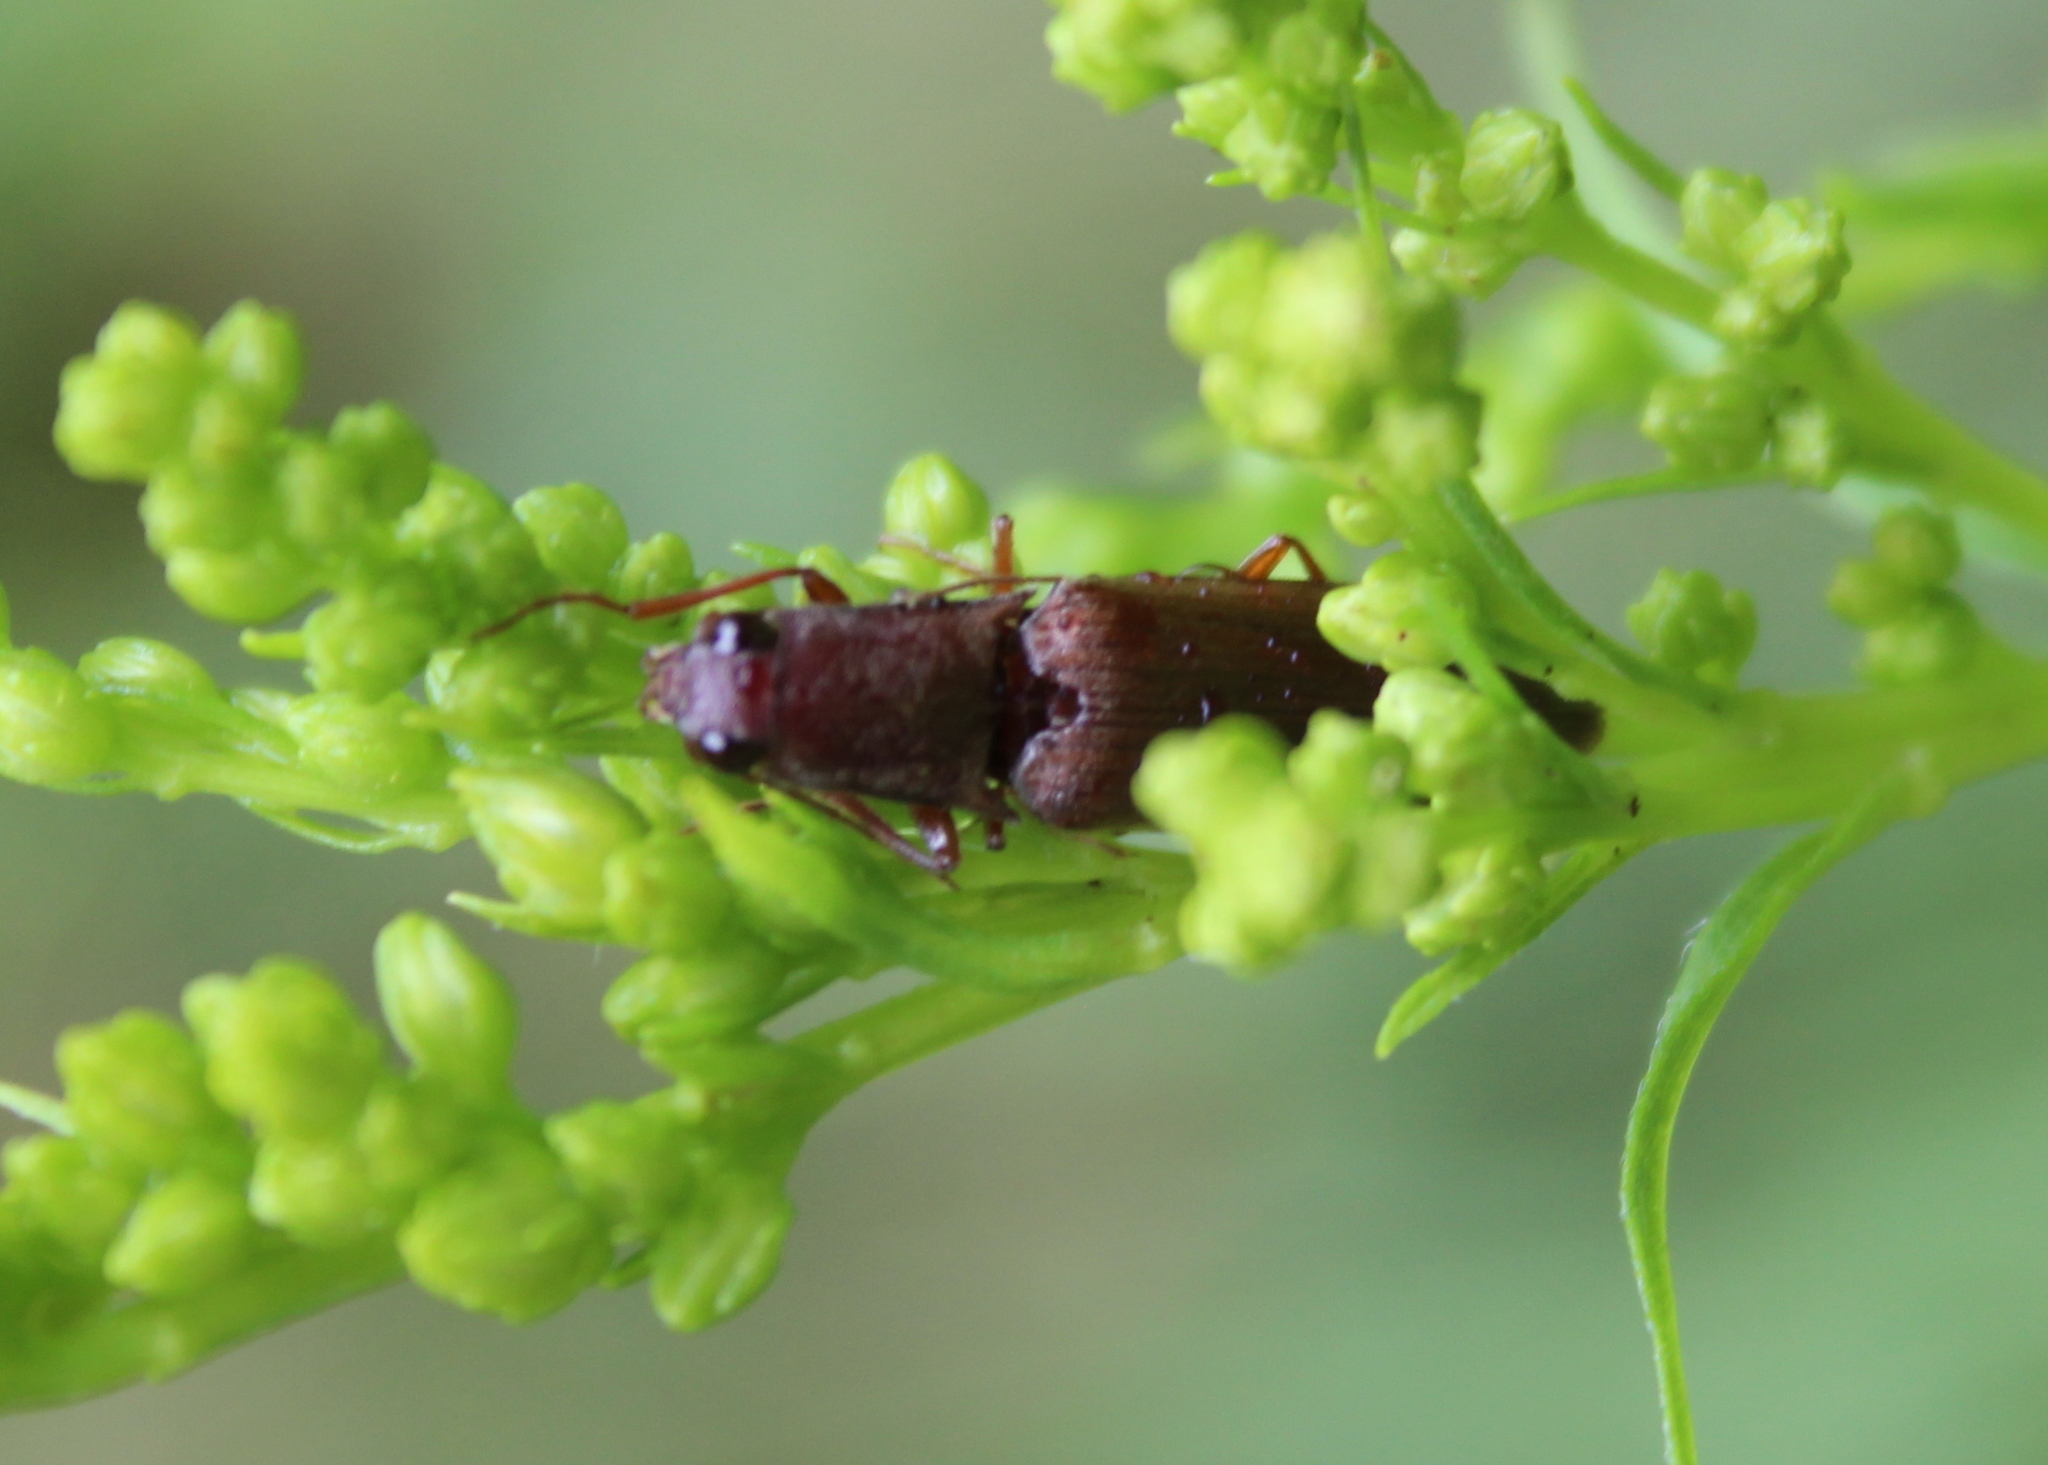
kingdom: Animalia
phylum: Arthropoda
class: Insecta
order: Coleoptera
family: Elateridae
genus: Proludius
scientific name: Proludius pyrros
